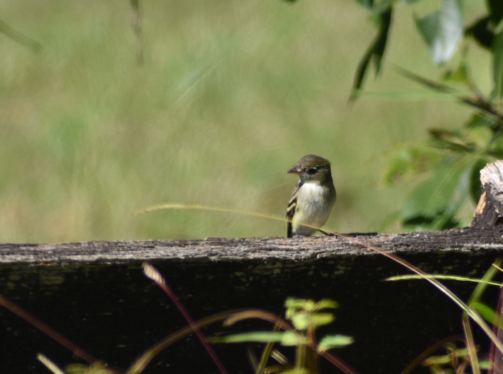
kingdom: Animalia
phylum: Chordata
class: Aves
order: Passeriformes
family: Tyrannidae
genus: Empidonax
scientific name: Empidonax
